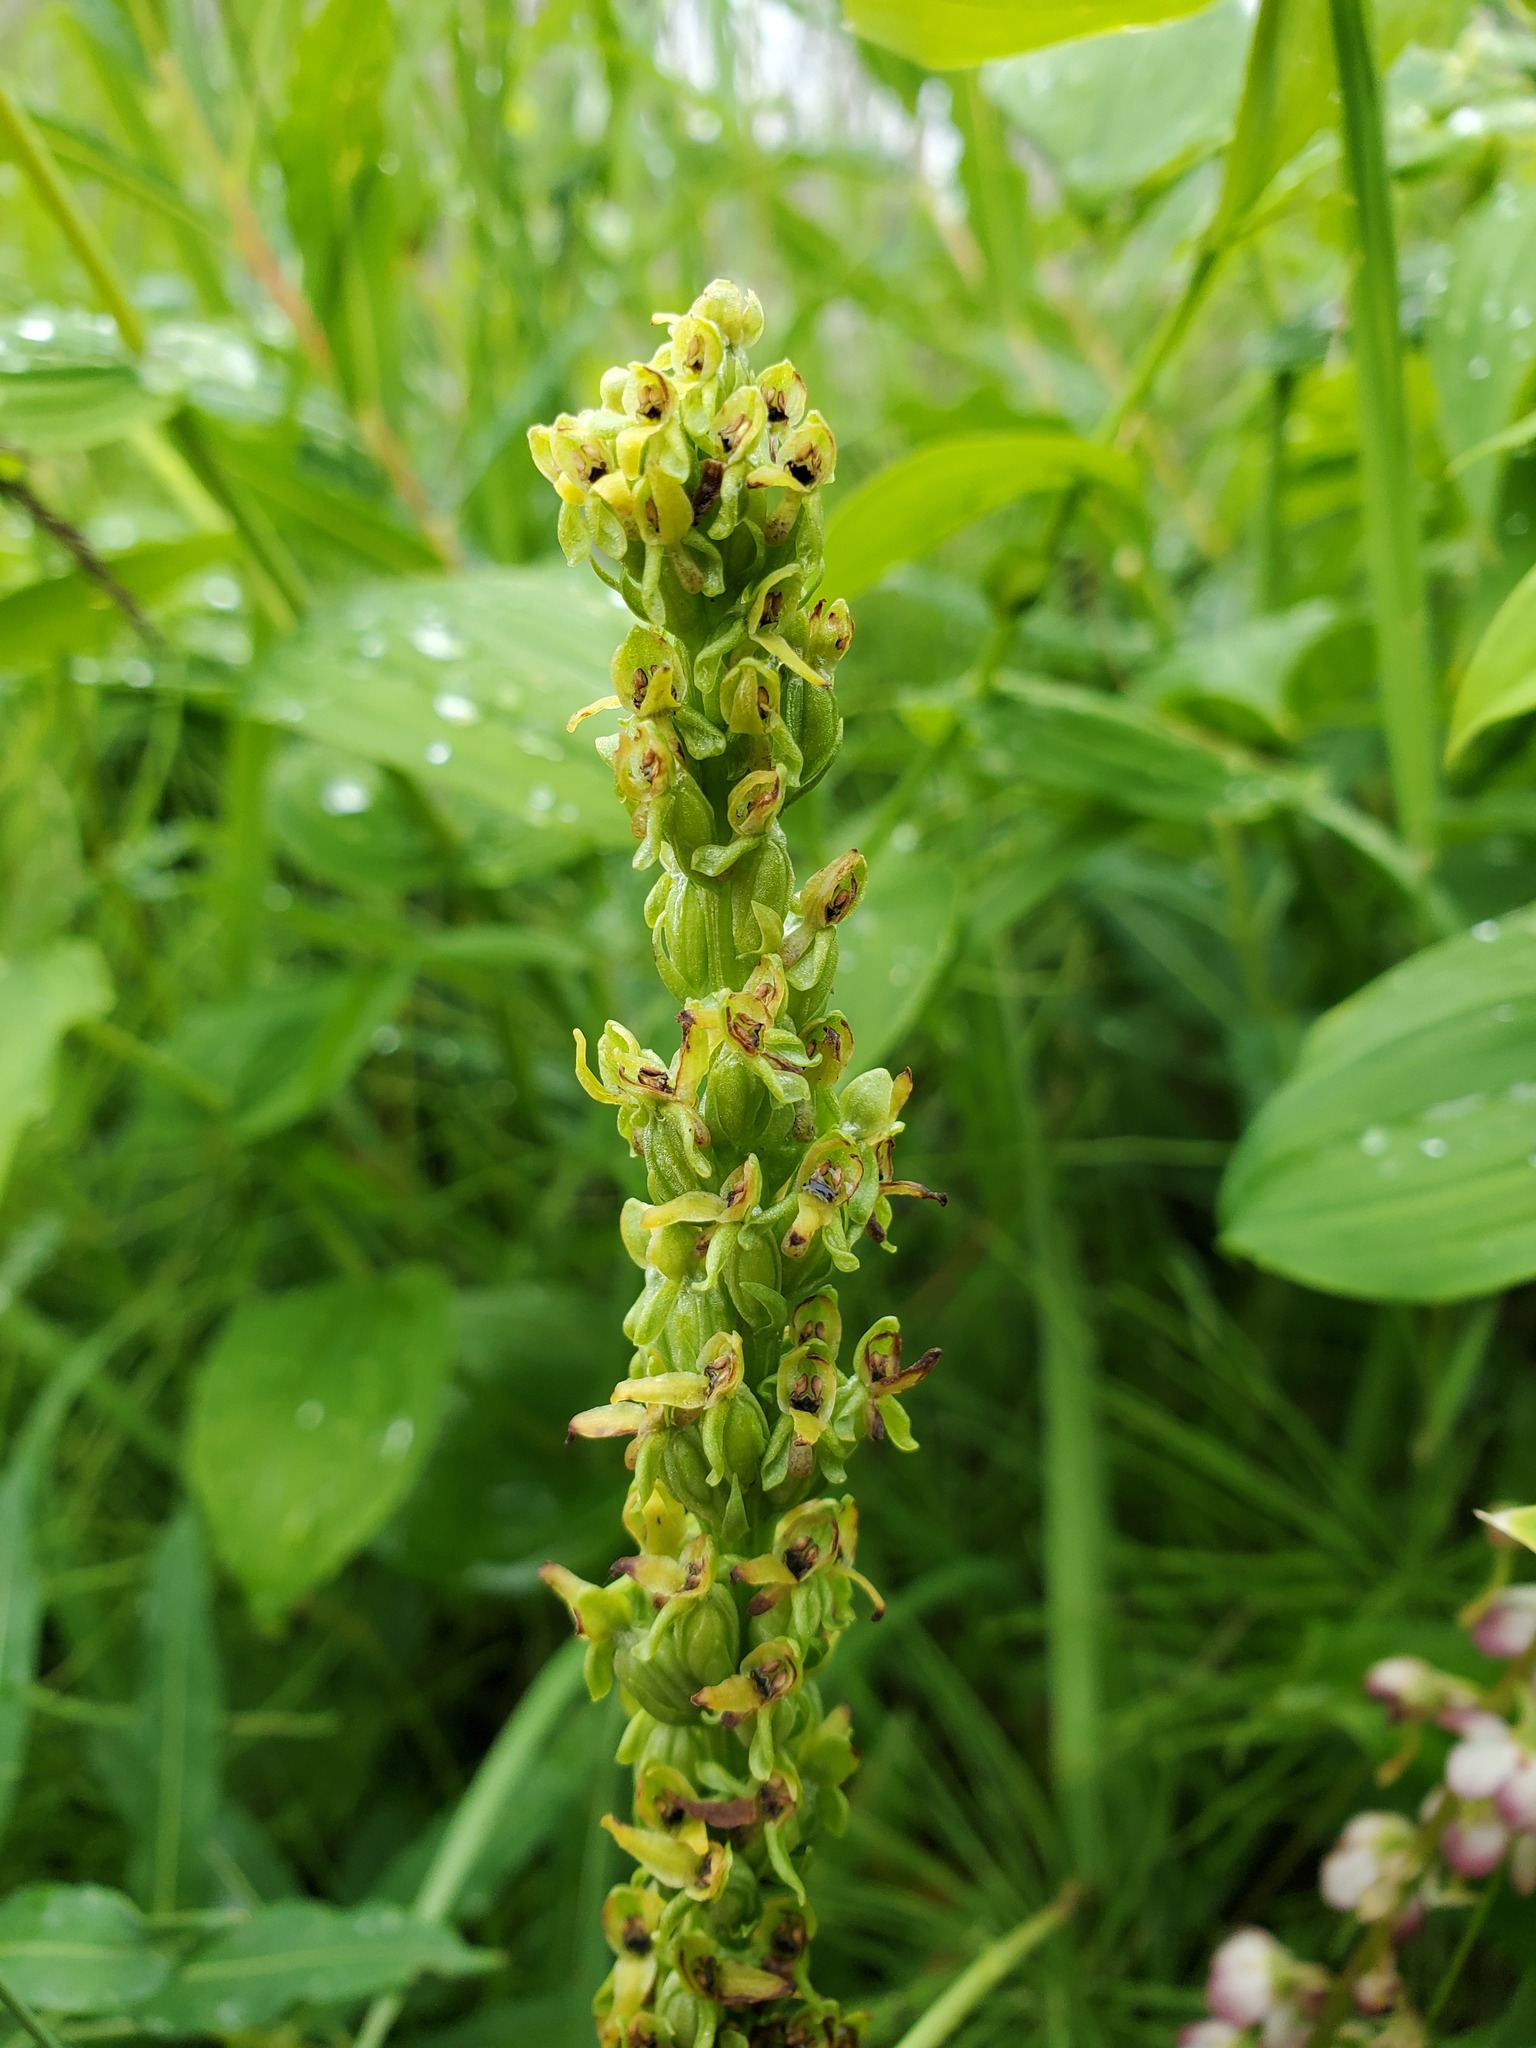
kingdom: Plantae
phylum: Tracheophyta
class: Liliopsida
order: Asparagales
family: Orchidaceae
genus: Platanthera
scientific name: Platanthera purpurascens
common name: Purple-petal bog orchid
